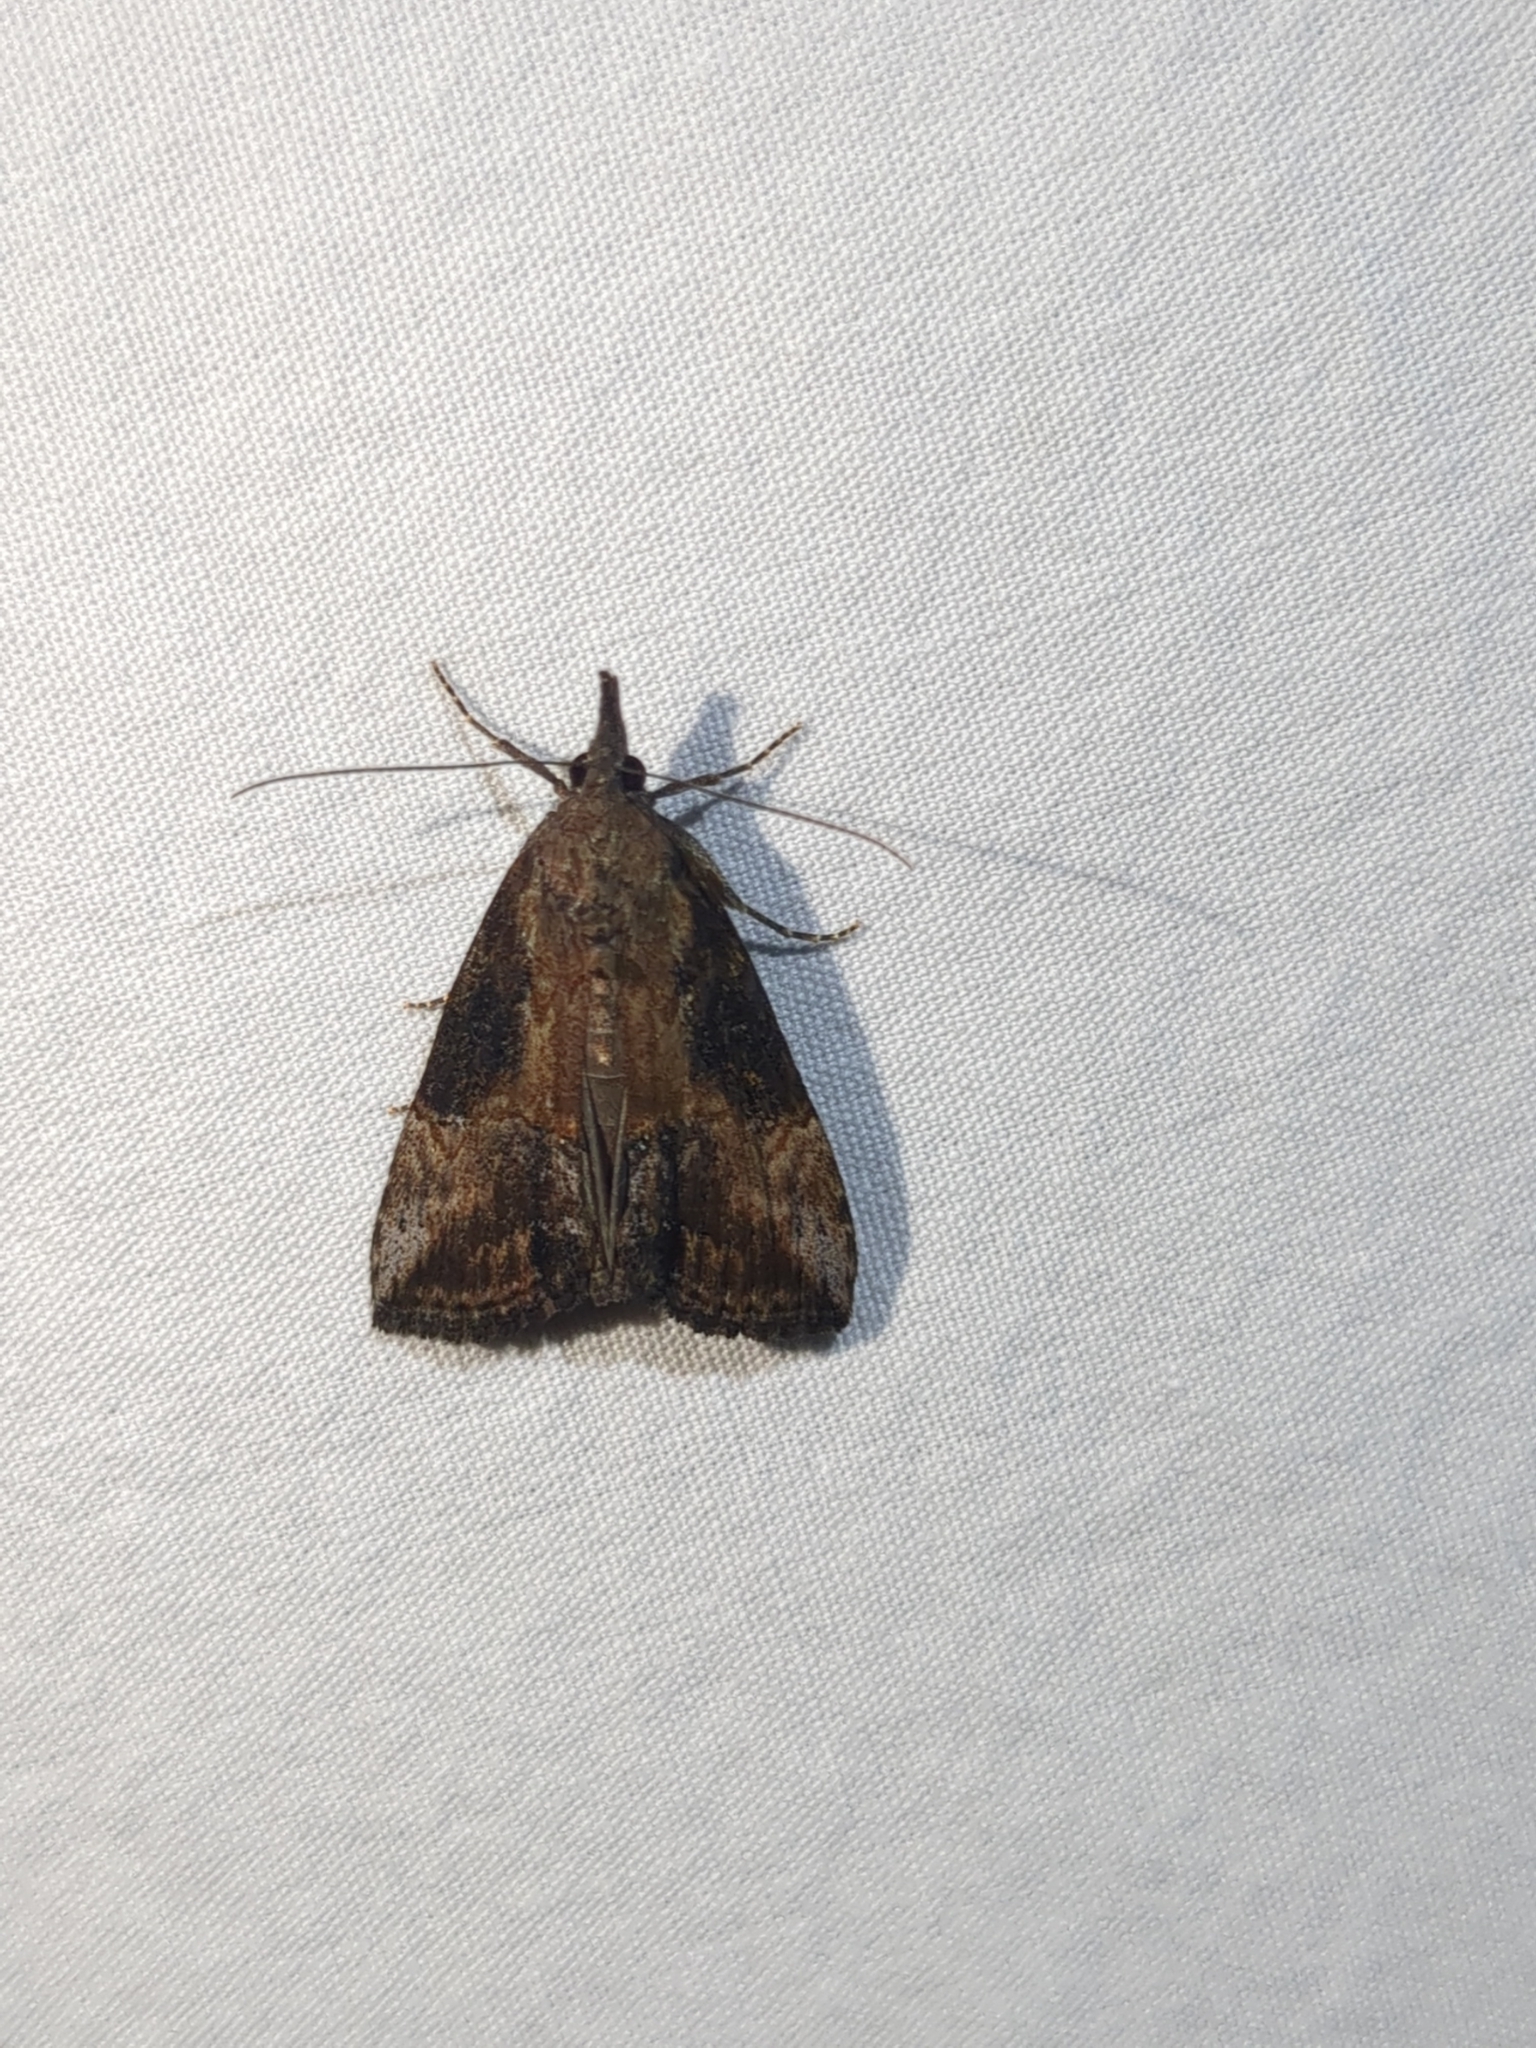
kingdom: Animalia
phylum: Arthropoda
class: Insecta
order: Lepidoptera
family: Erebidae
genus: Hypena
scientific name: Hypena scabra
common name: Green cloverworm
